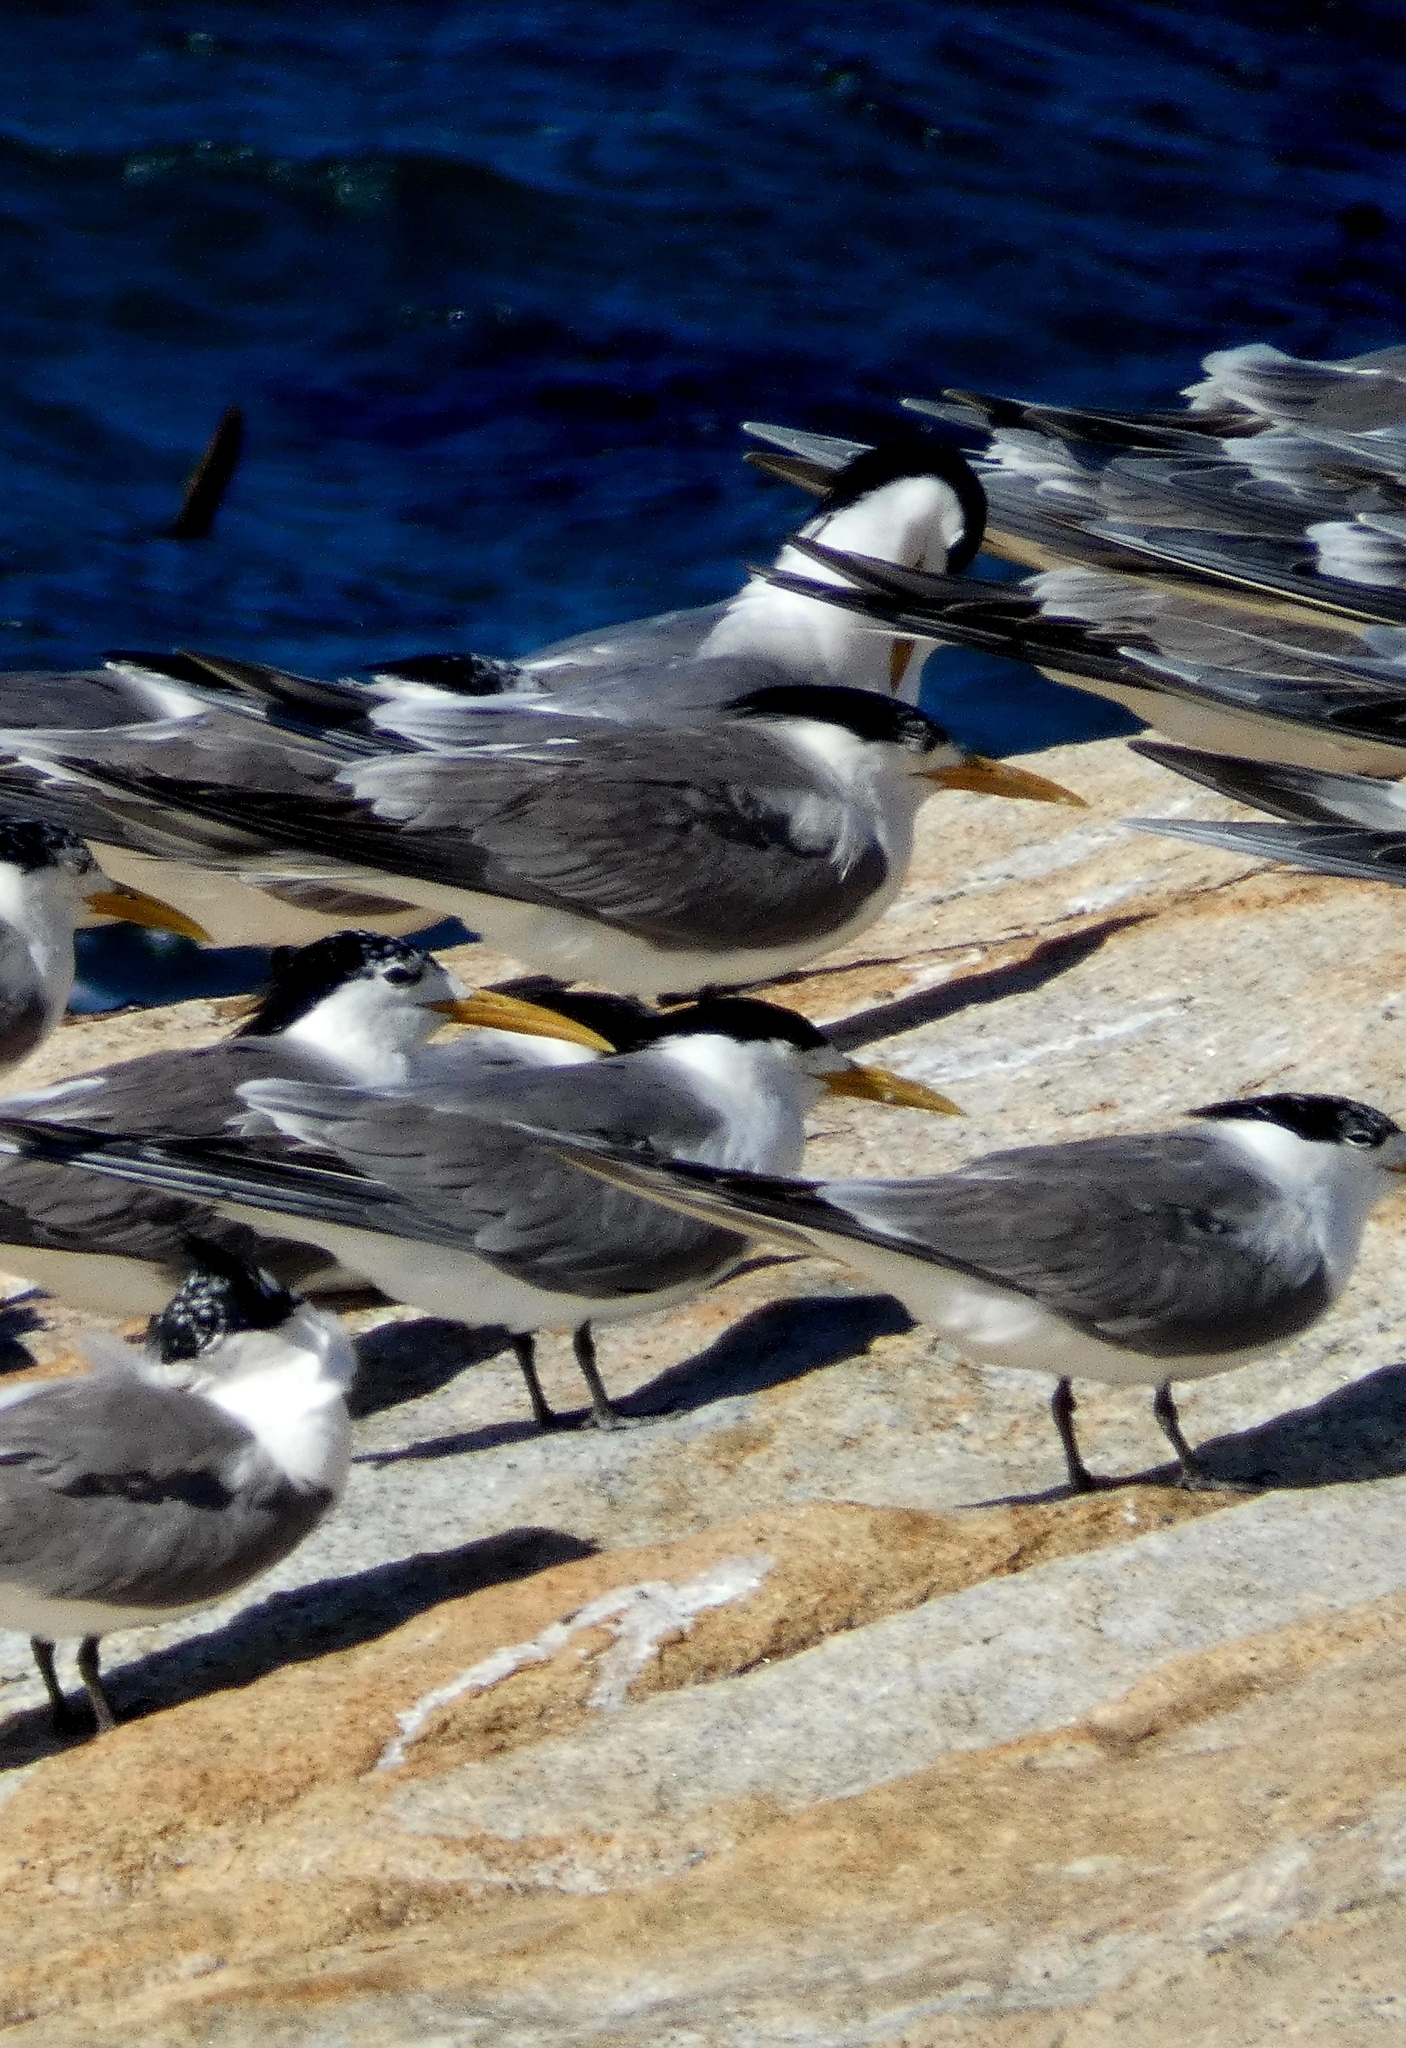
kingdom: Animalia
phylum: Chordata
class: Aves
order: Charadriiformes
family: Laridae
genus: Thalasseus
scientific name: Thalasseus bergii
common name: Greater crested tern
